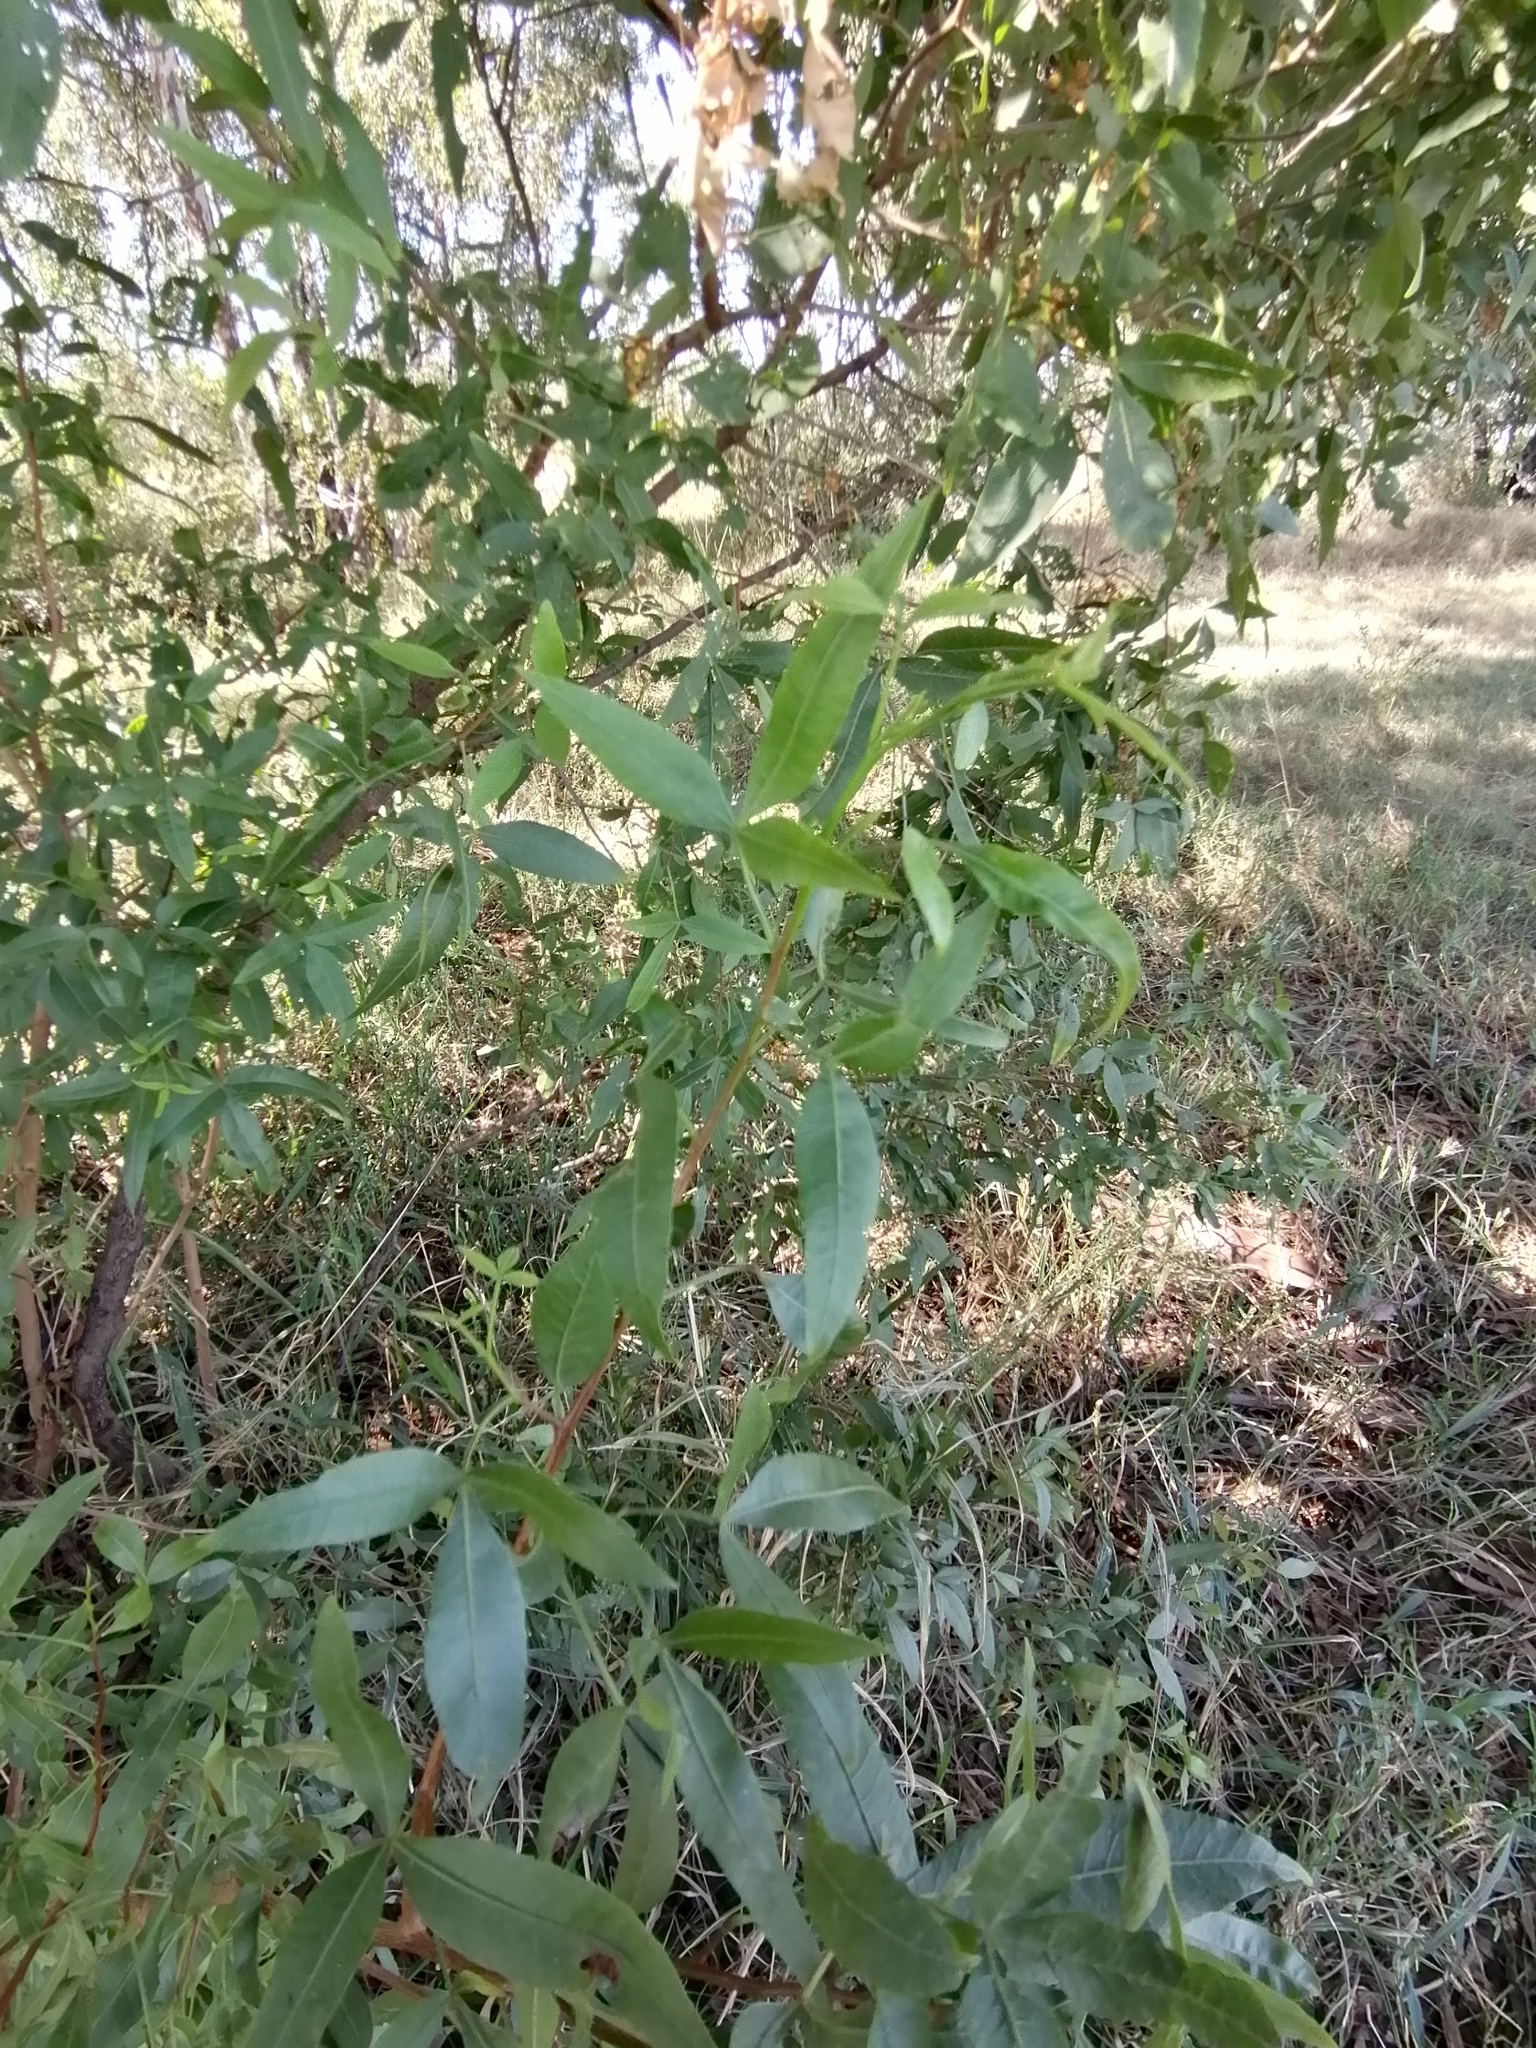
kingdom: Plantae
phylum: Tracheophyta
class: Magnoliopsida
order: Sapindales
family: Anacardiaceae
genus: Searsia
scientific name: Searsia leptodictya
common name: Mountain karee
